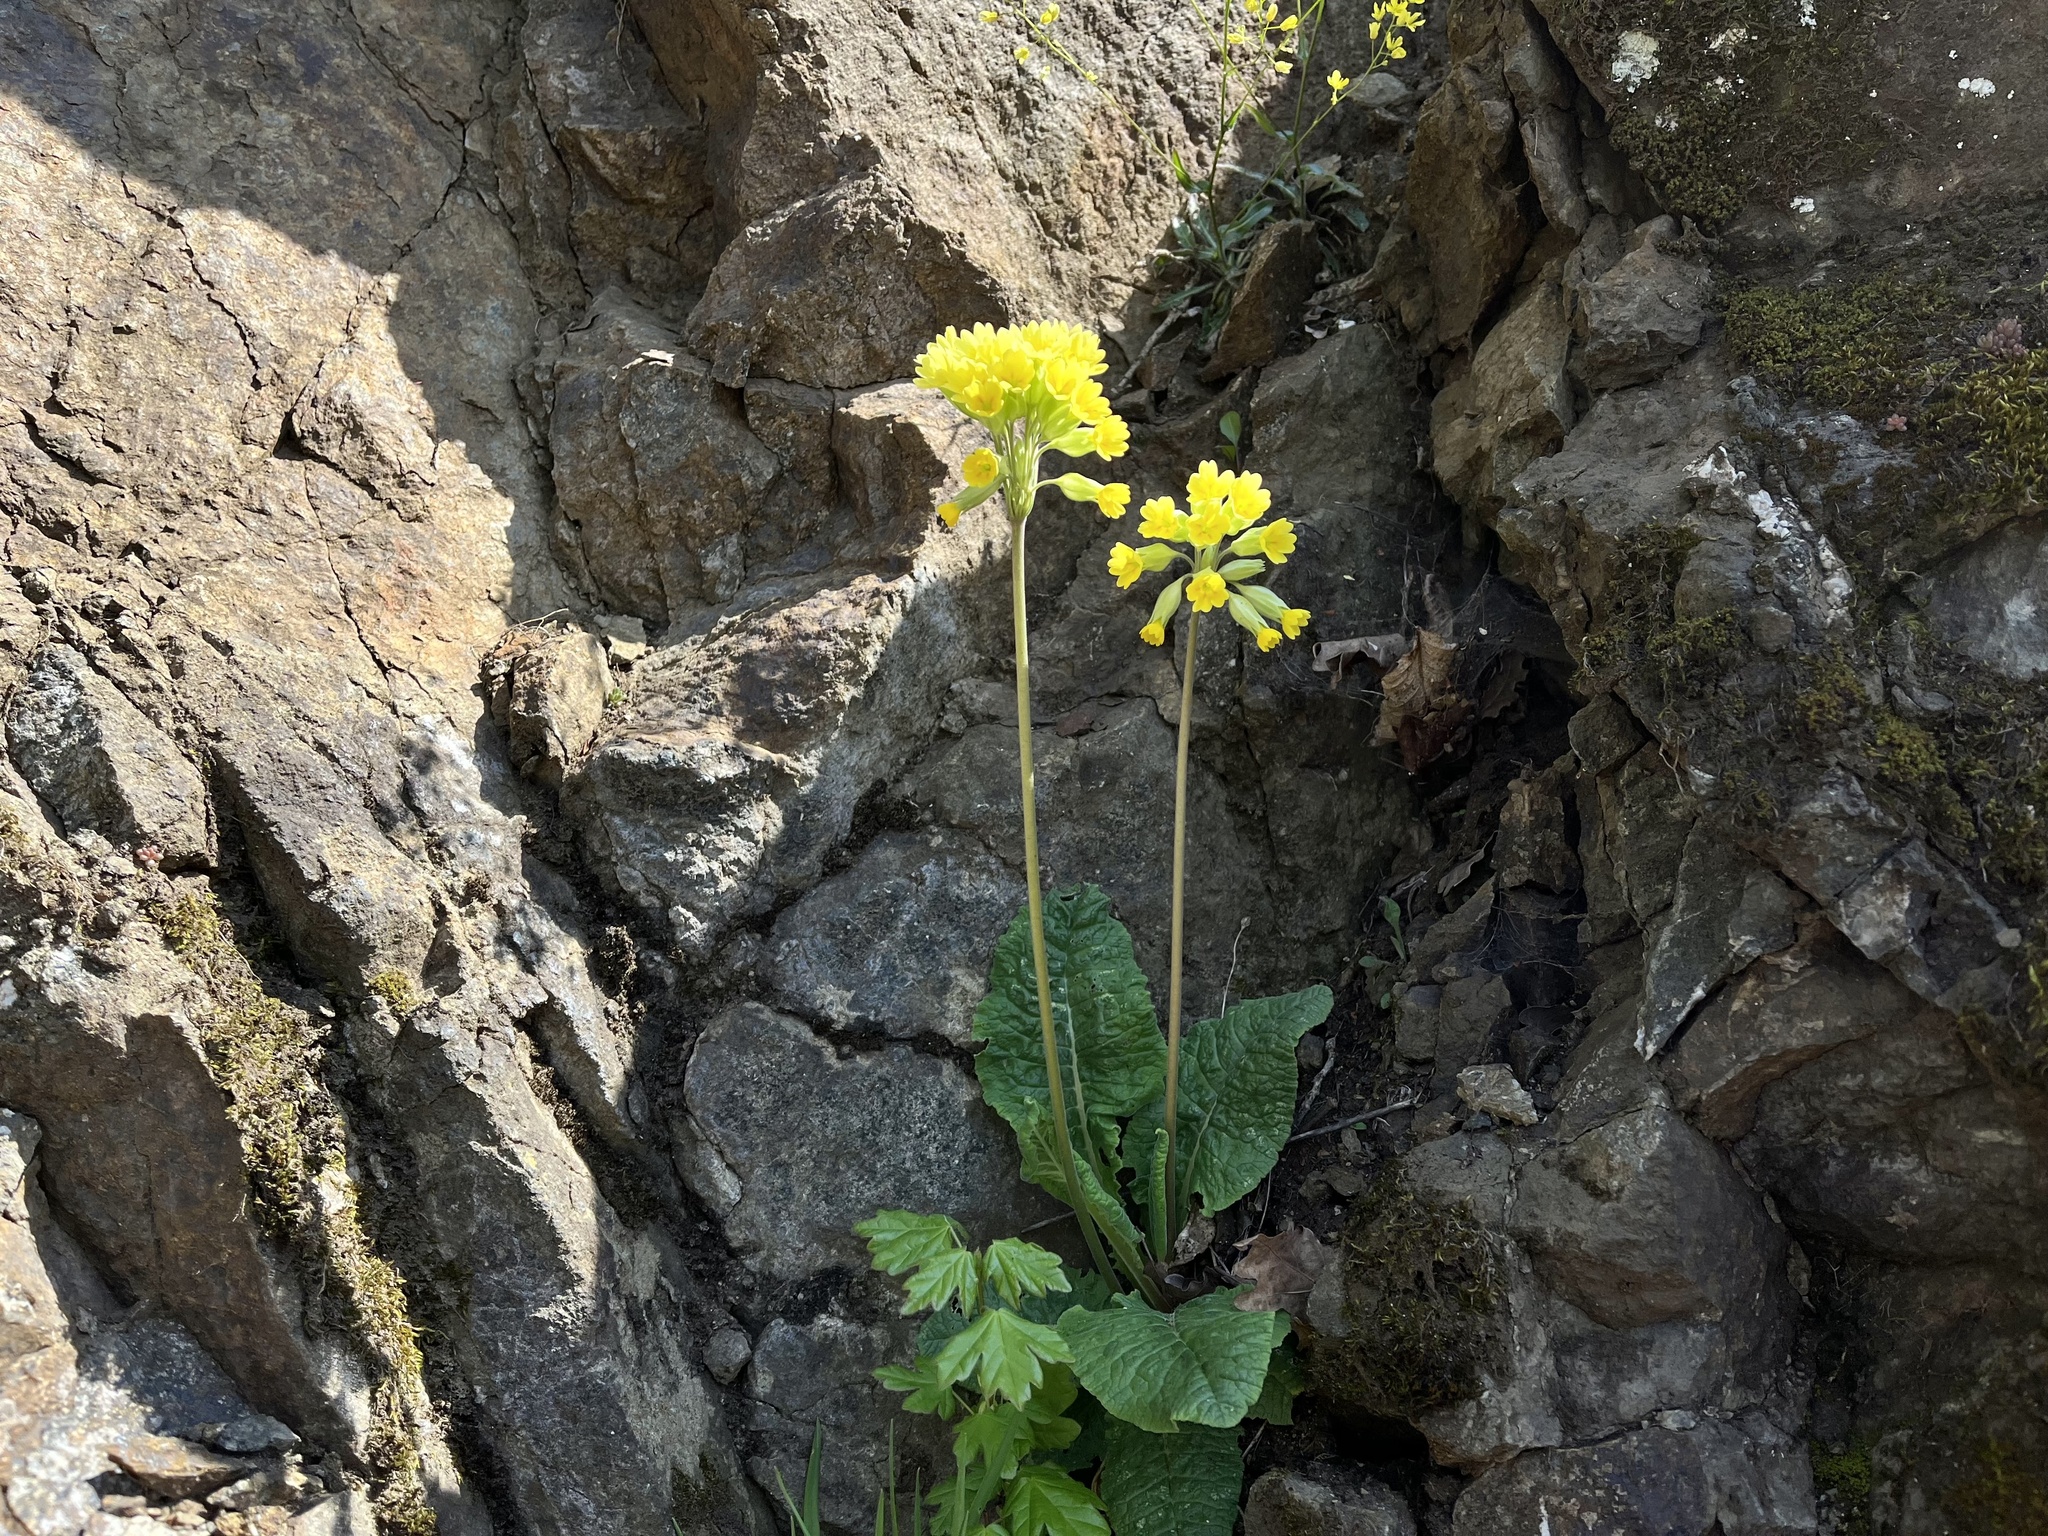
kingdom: Plantae
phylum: Tracheophyta
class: Magnoliopsida
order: Ericales
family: Primulaceae
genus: Primula
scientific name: Primula veris
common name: Cowslip
